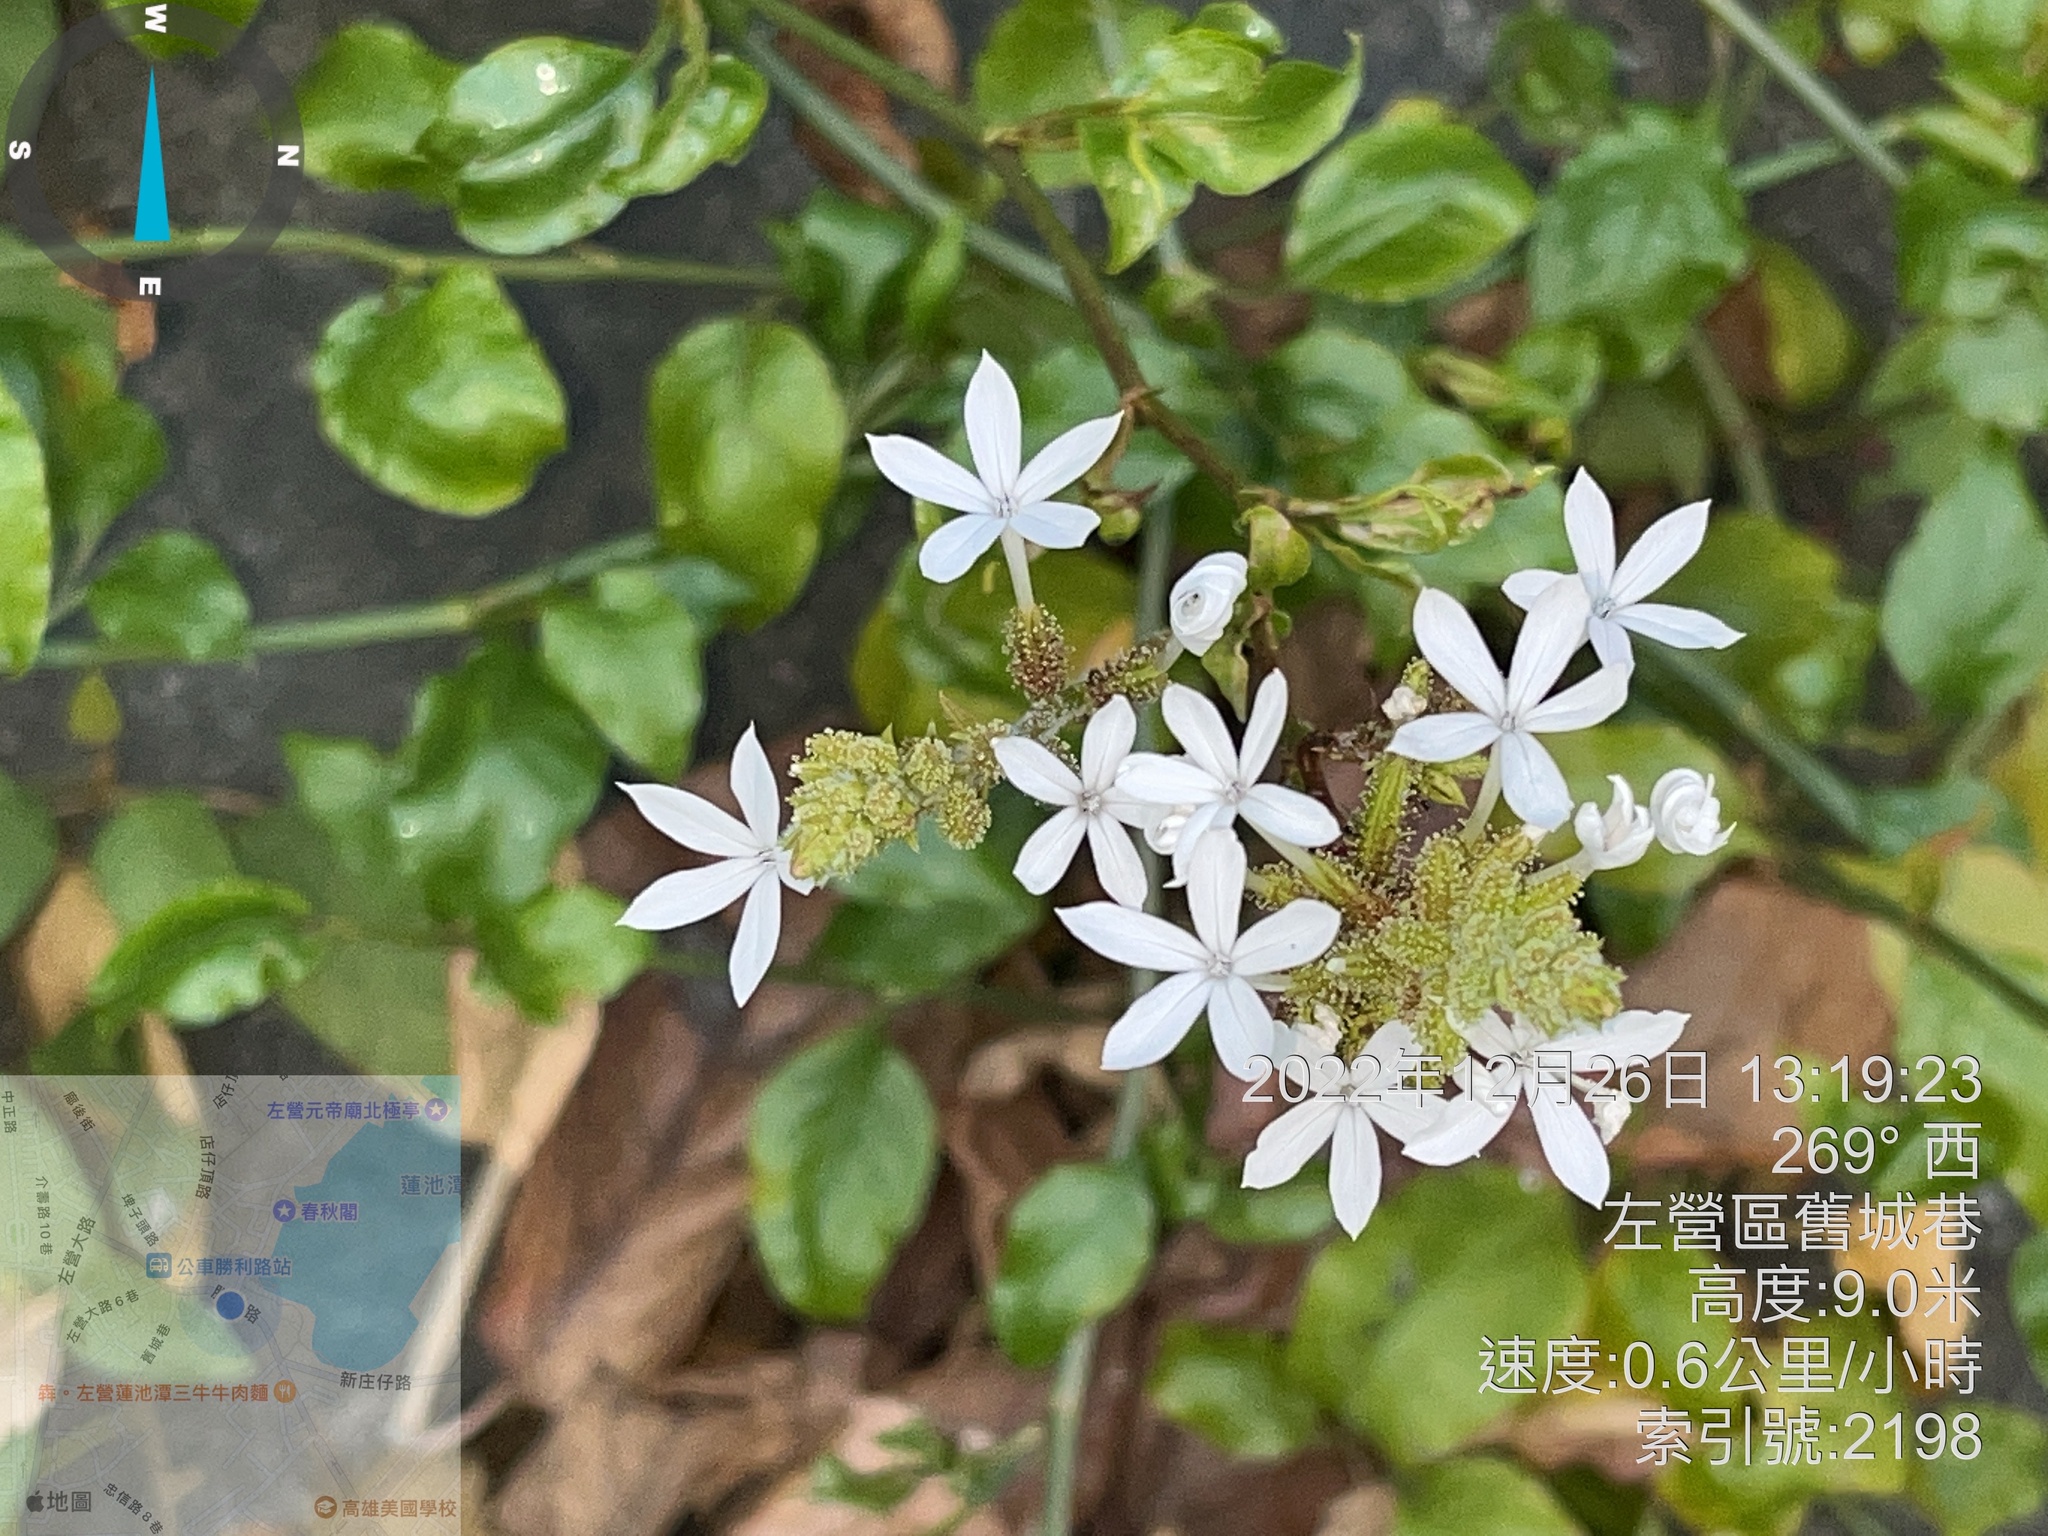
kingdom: Plantae
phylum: Tracheophyta
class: Magnoliopsida
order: Caryophyllales
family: Plumbaginaceae
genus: Plumbago
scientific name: Plumbago zeylanica
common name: Doctorbush
